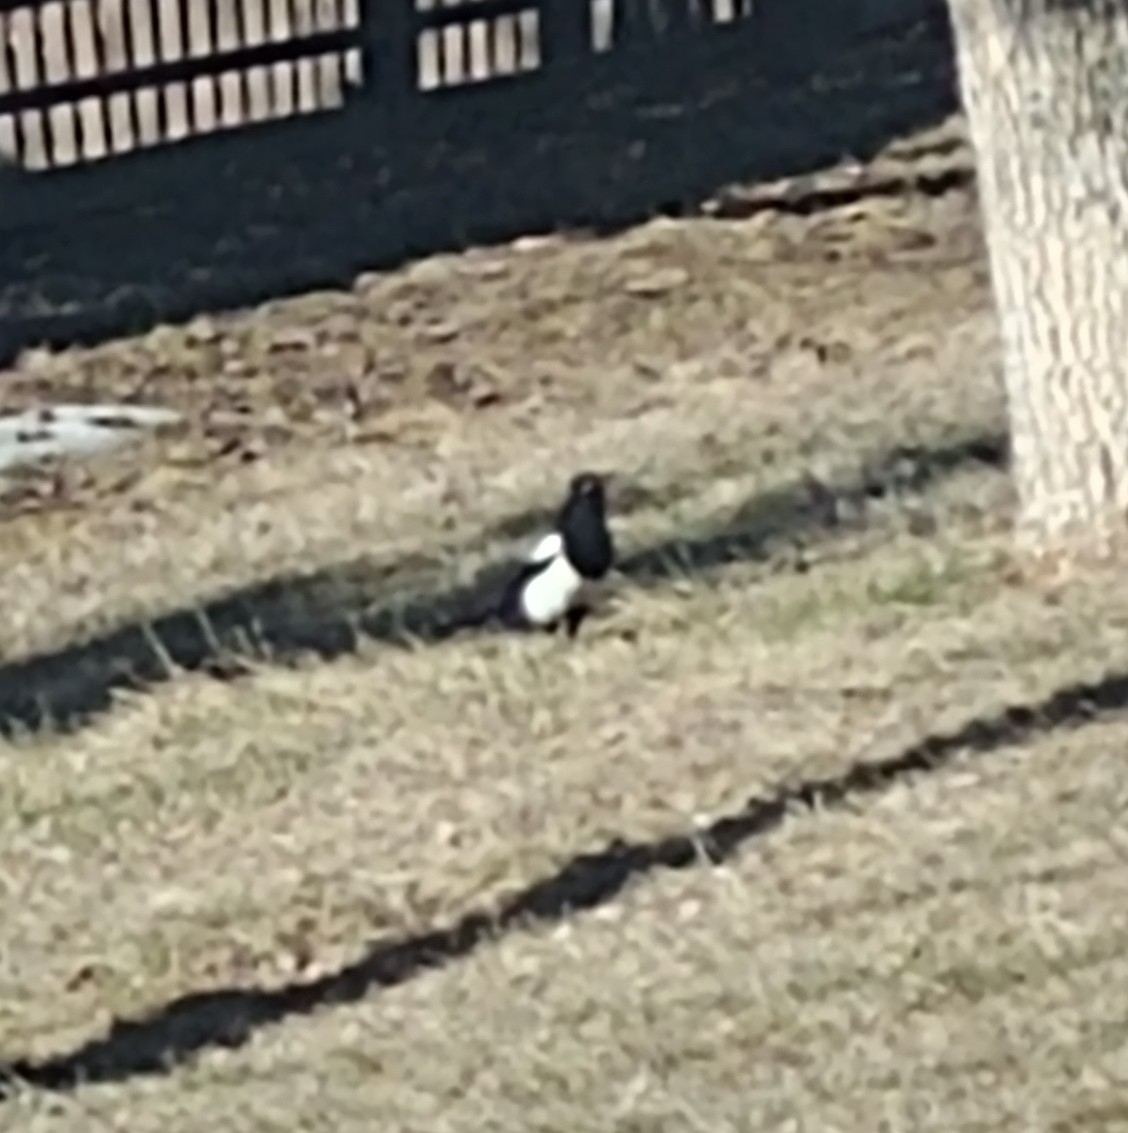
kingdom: Animalia
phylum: Chordata
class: Aves
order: Passeriformes
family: Corvidae
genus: Pica
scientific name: Pica hudsonia
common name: Black-billed magpie
